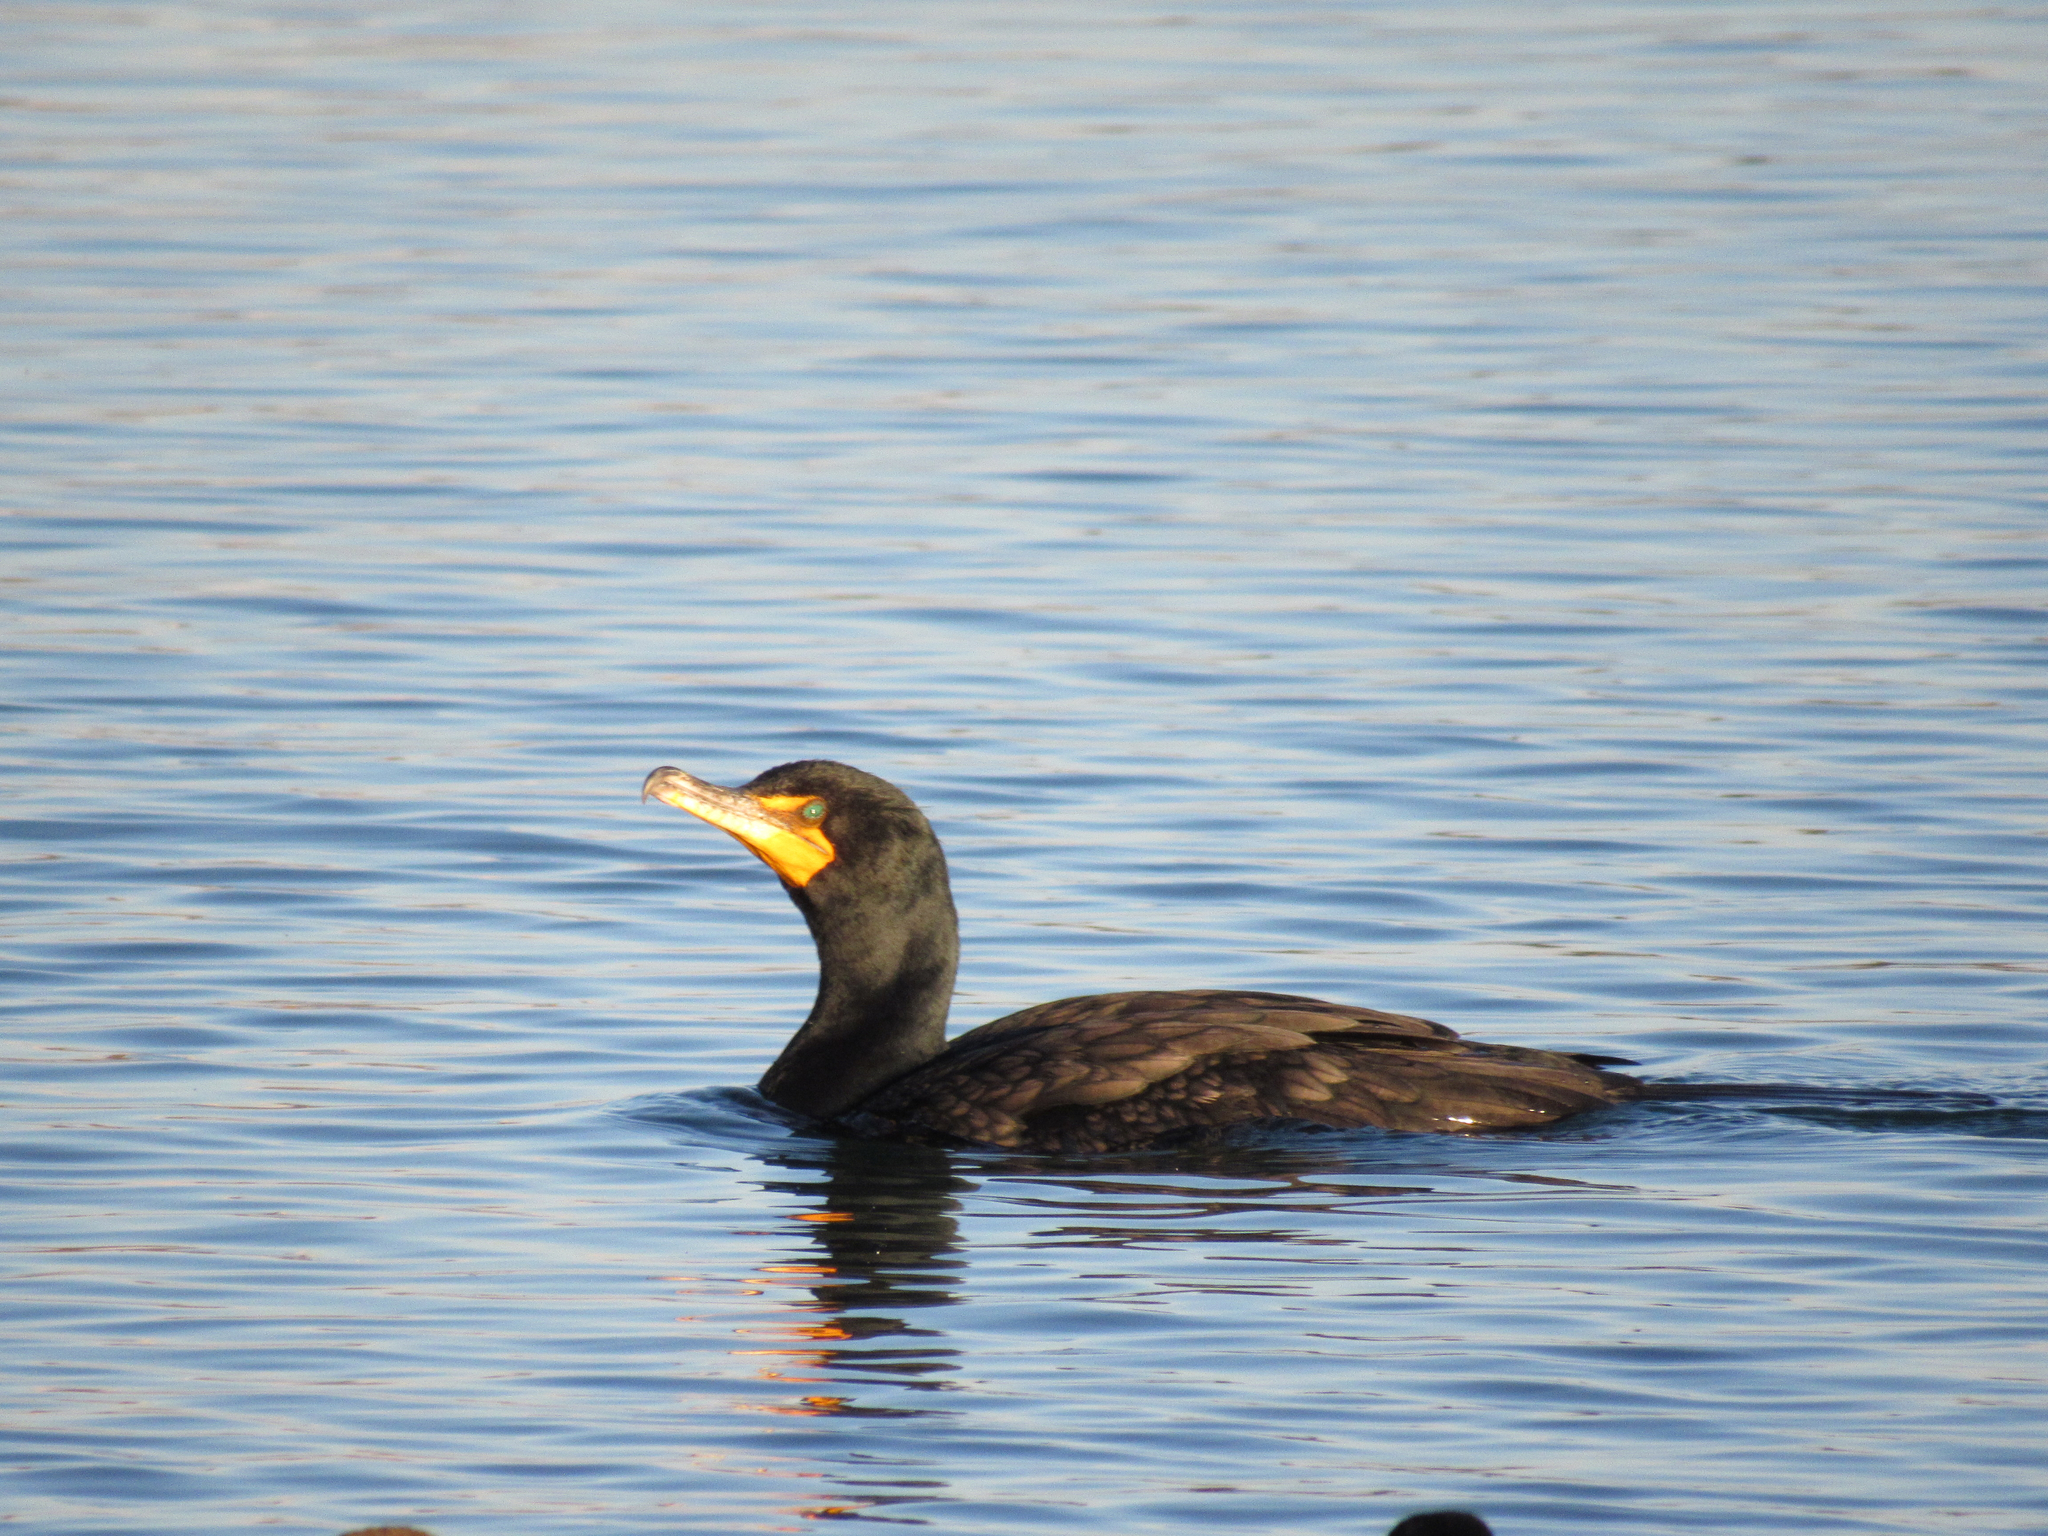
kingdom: Animalia
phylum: Chordata
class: Aves
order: Suliformes
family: Phalacrocoracidae
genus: Phalacrocorax
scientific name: Phalacrocorax auritus
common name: Double-crested cormorant
